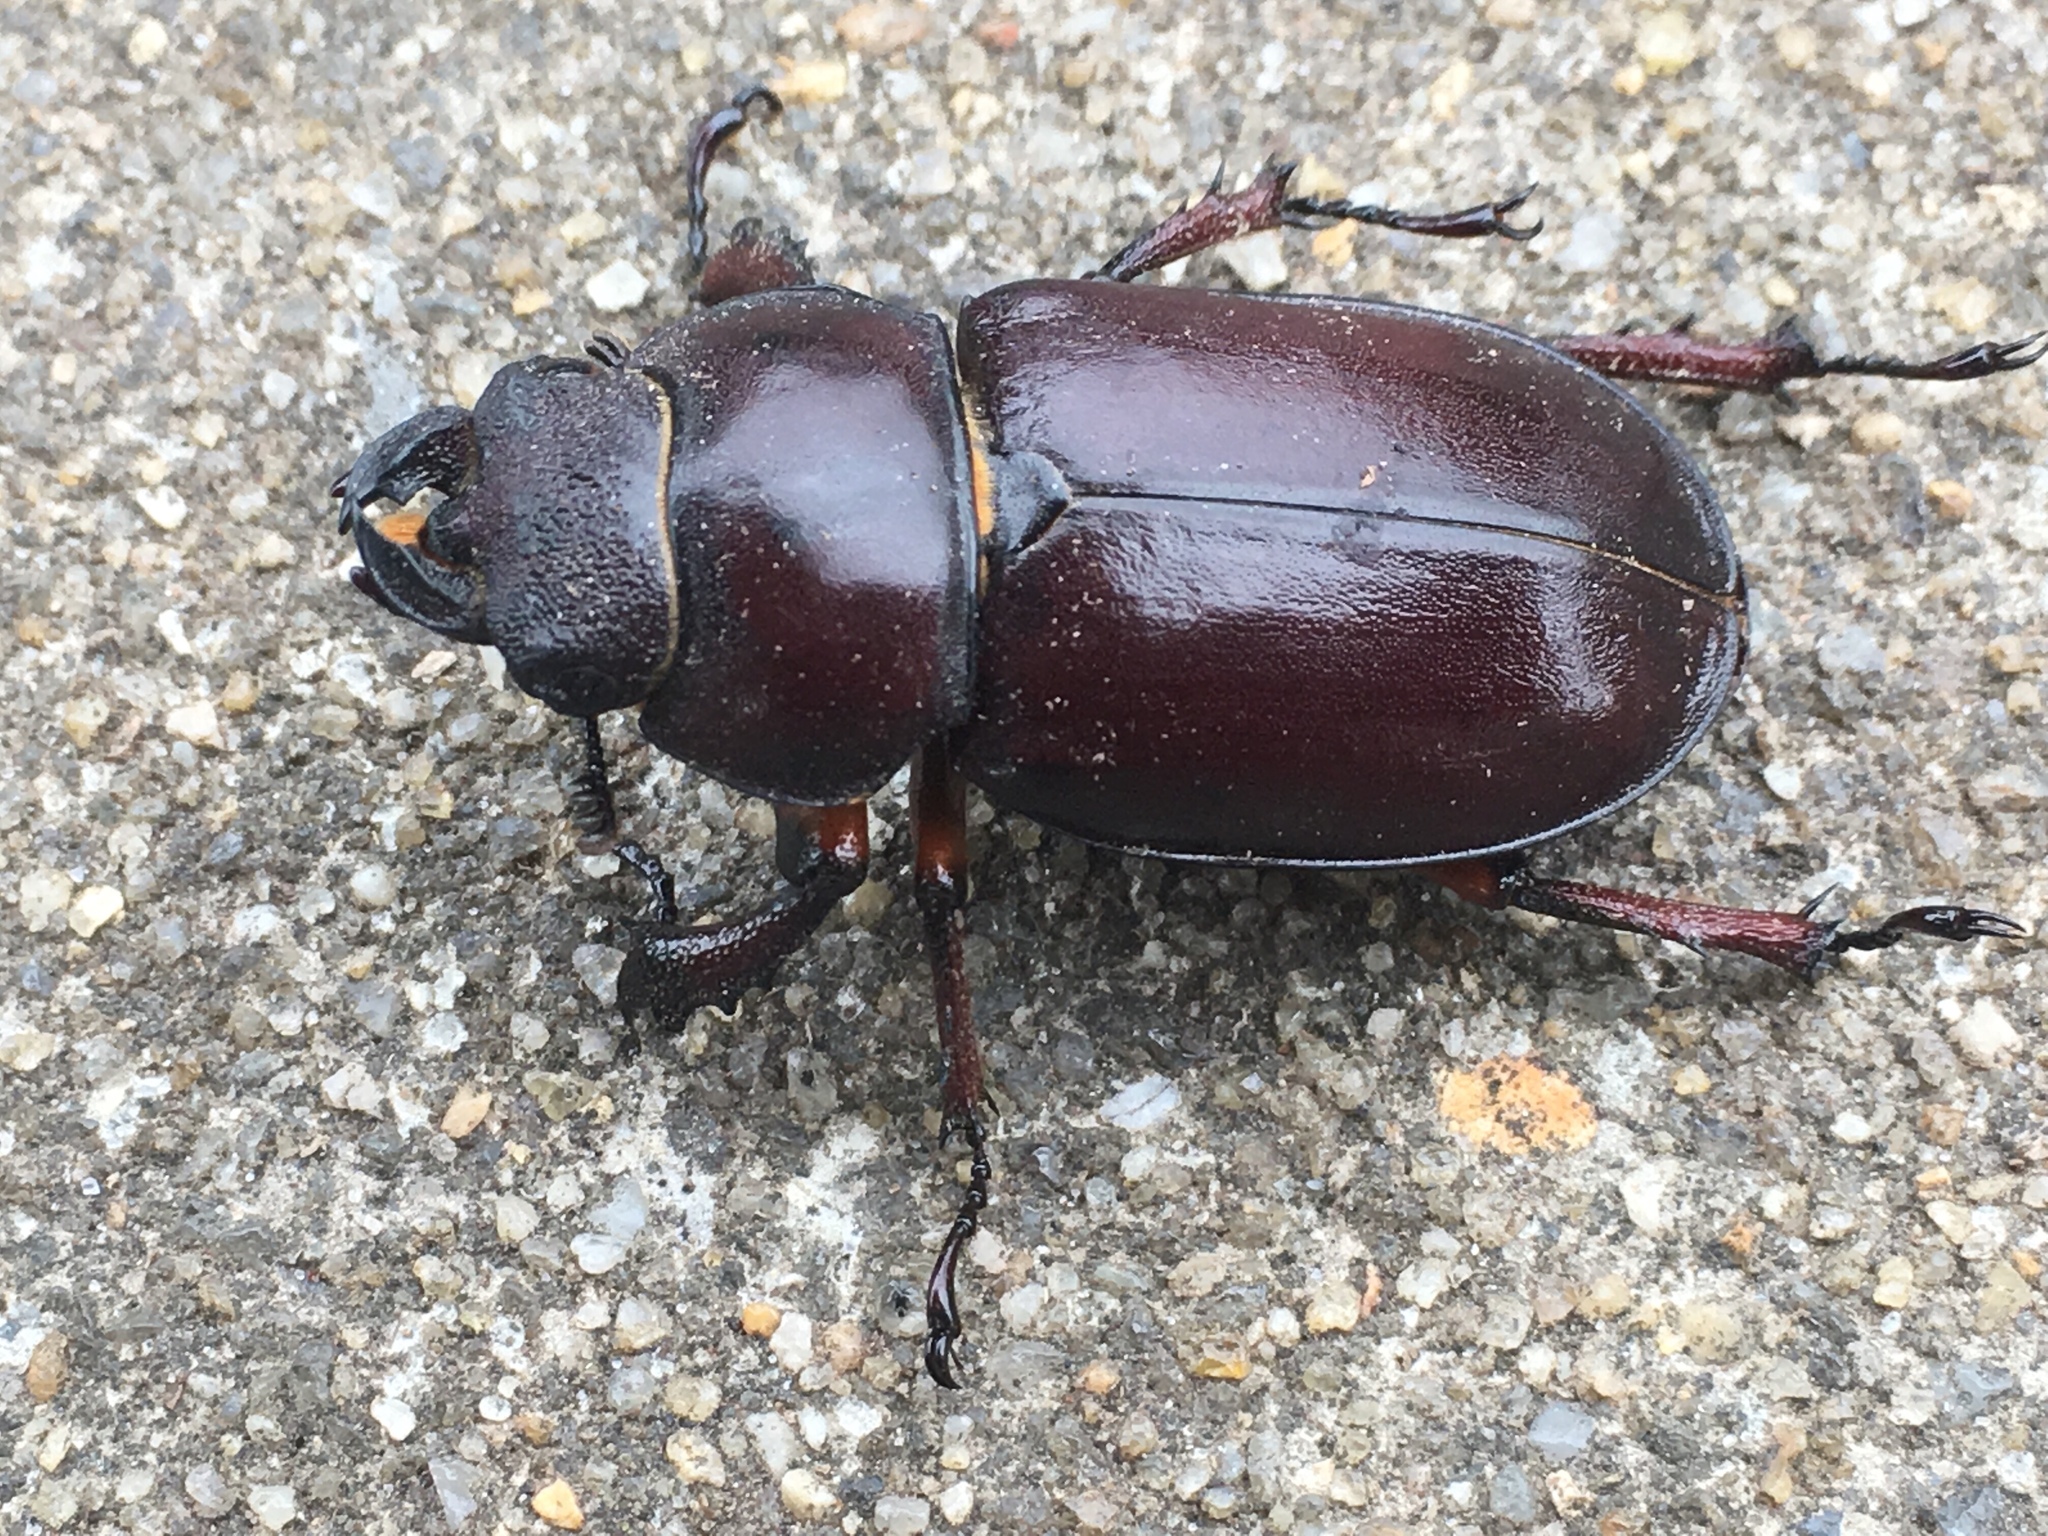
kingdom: Animalia
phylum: Arthropoda
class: Insecta
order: Coleoptera
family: Lucanidae
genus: Lucanus
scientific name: Lucanus capreolus
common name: Stag beetle
